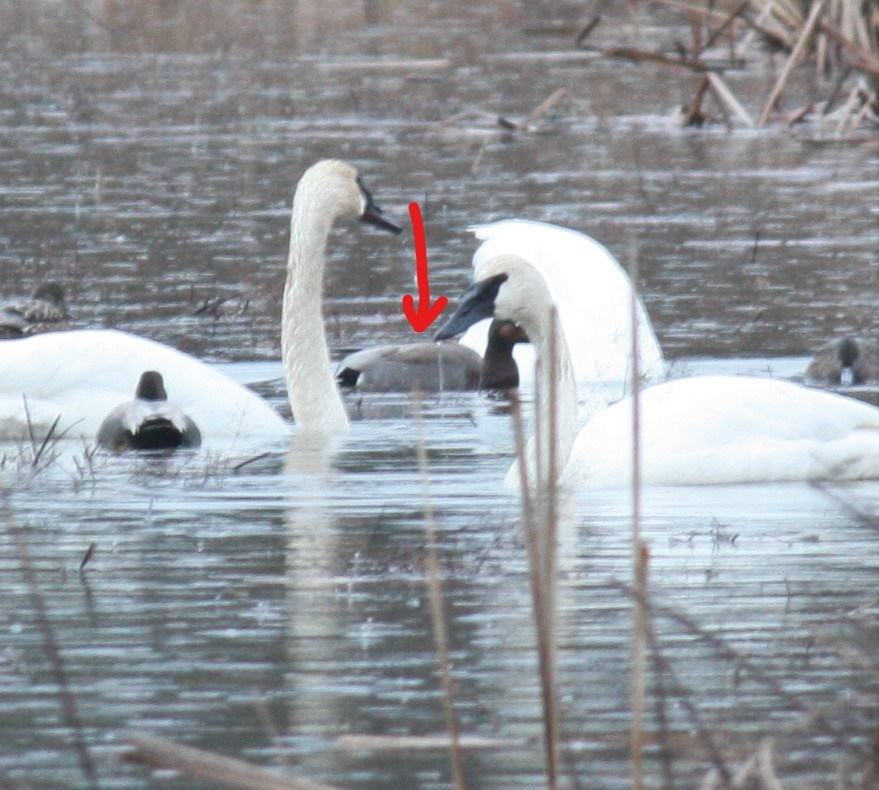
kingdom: Animalia
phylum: Chordata
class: Aves
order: Anseriformes
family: Anatidae
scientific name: Anatidae
